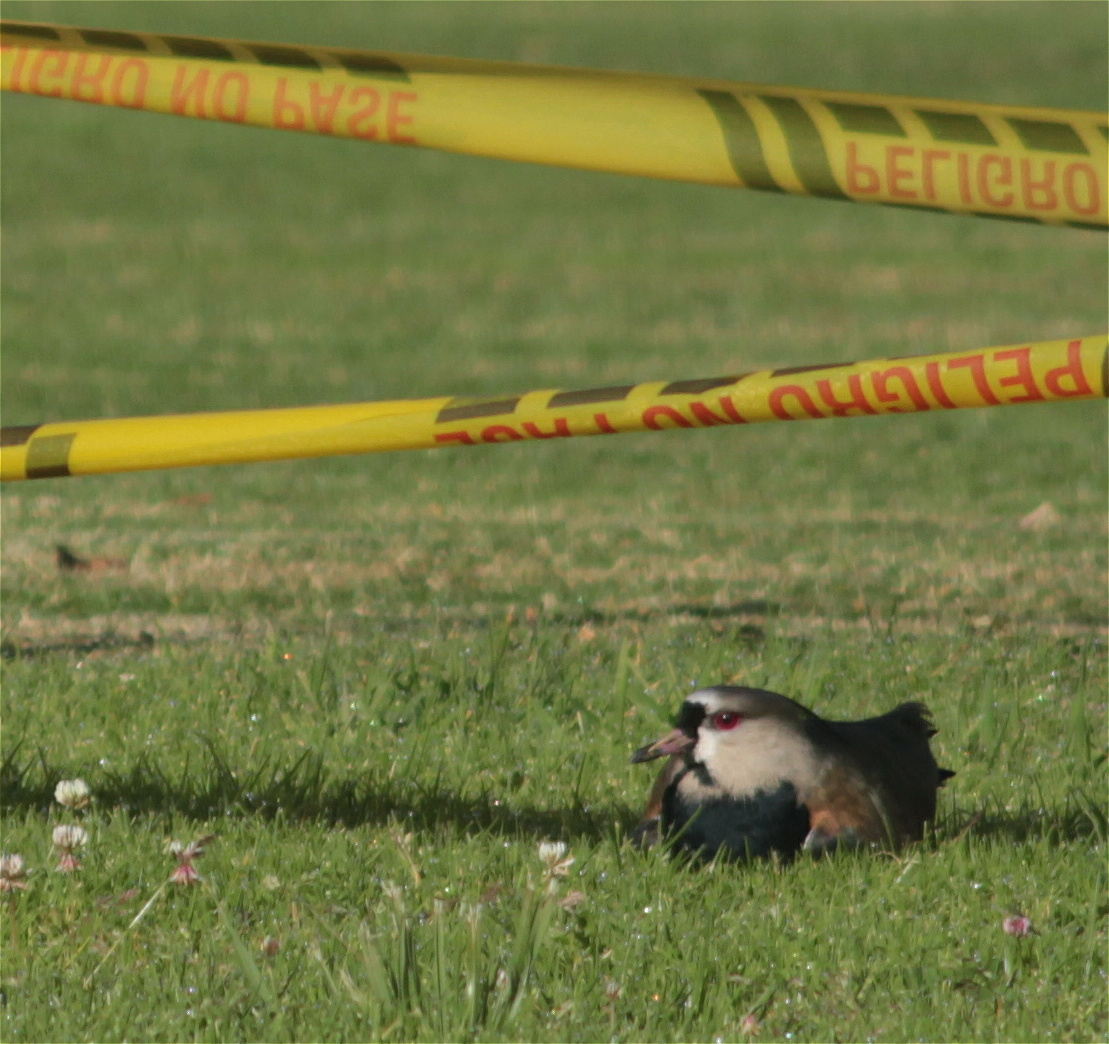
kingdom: Animalia
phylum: Chordata
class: Aves
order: Charadriiformes
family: Charadriidae
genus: Vanellus
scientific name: Vanellus chilensis
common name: Southern lapwing
